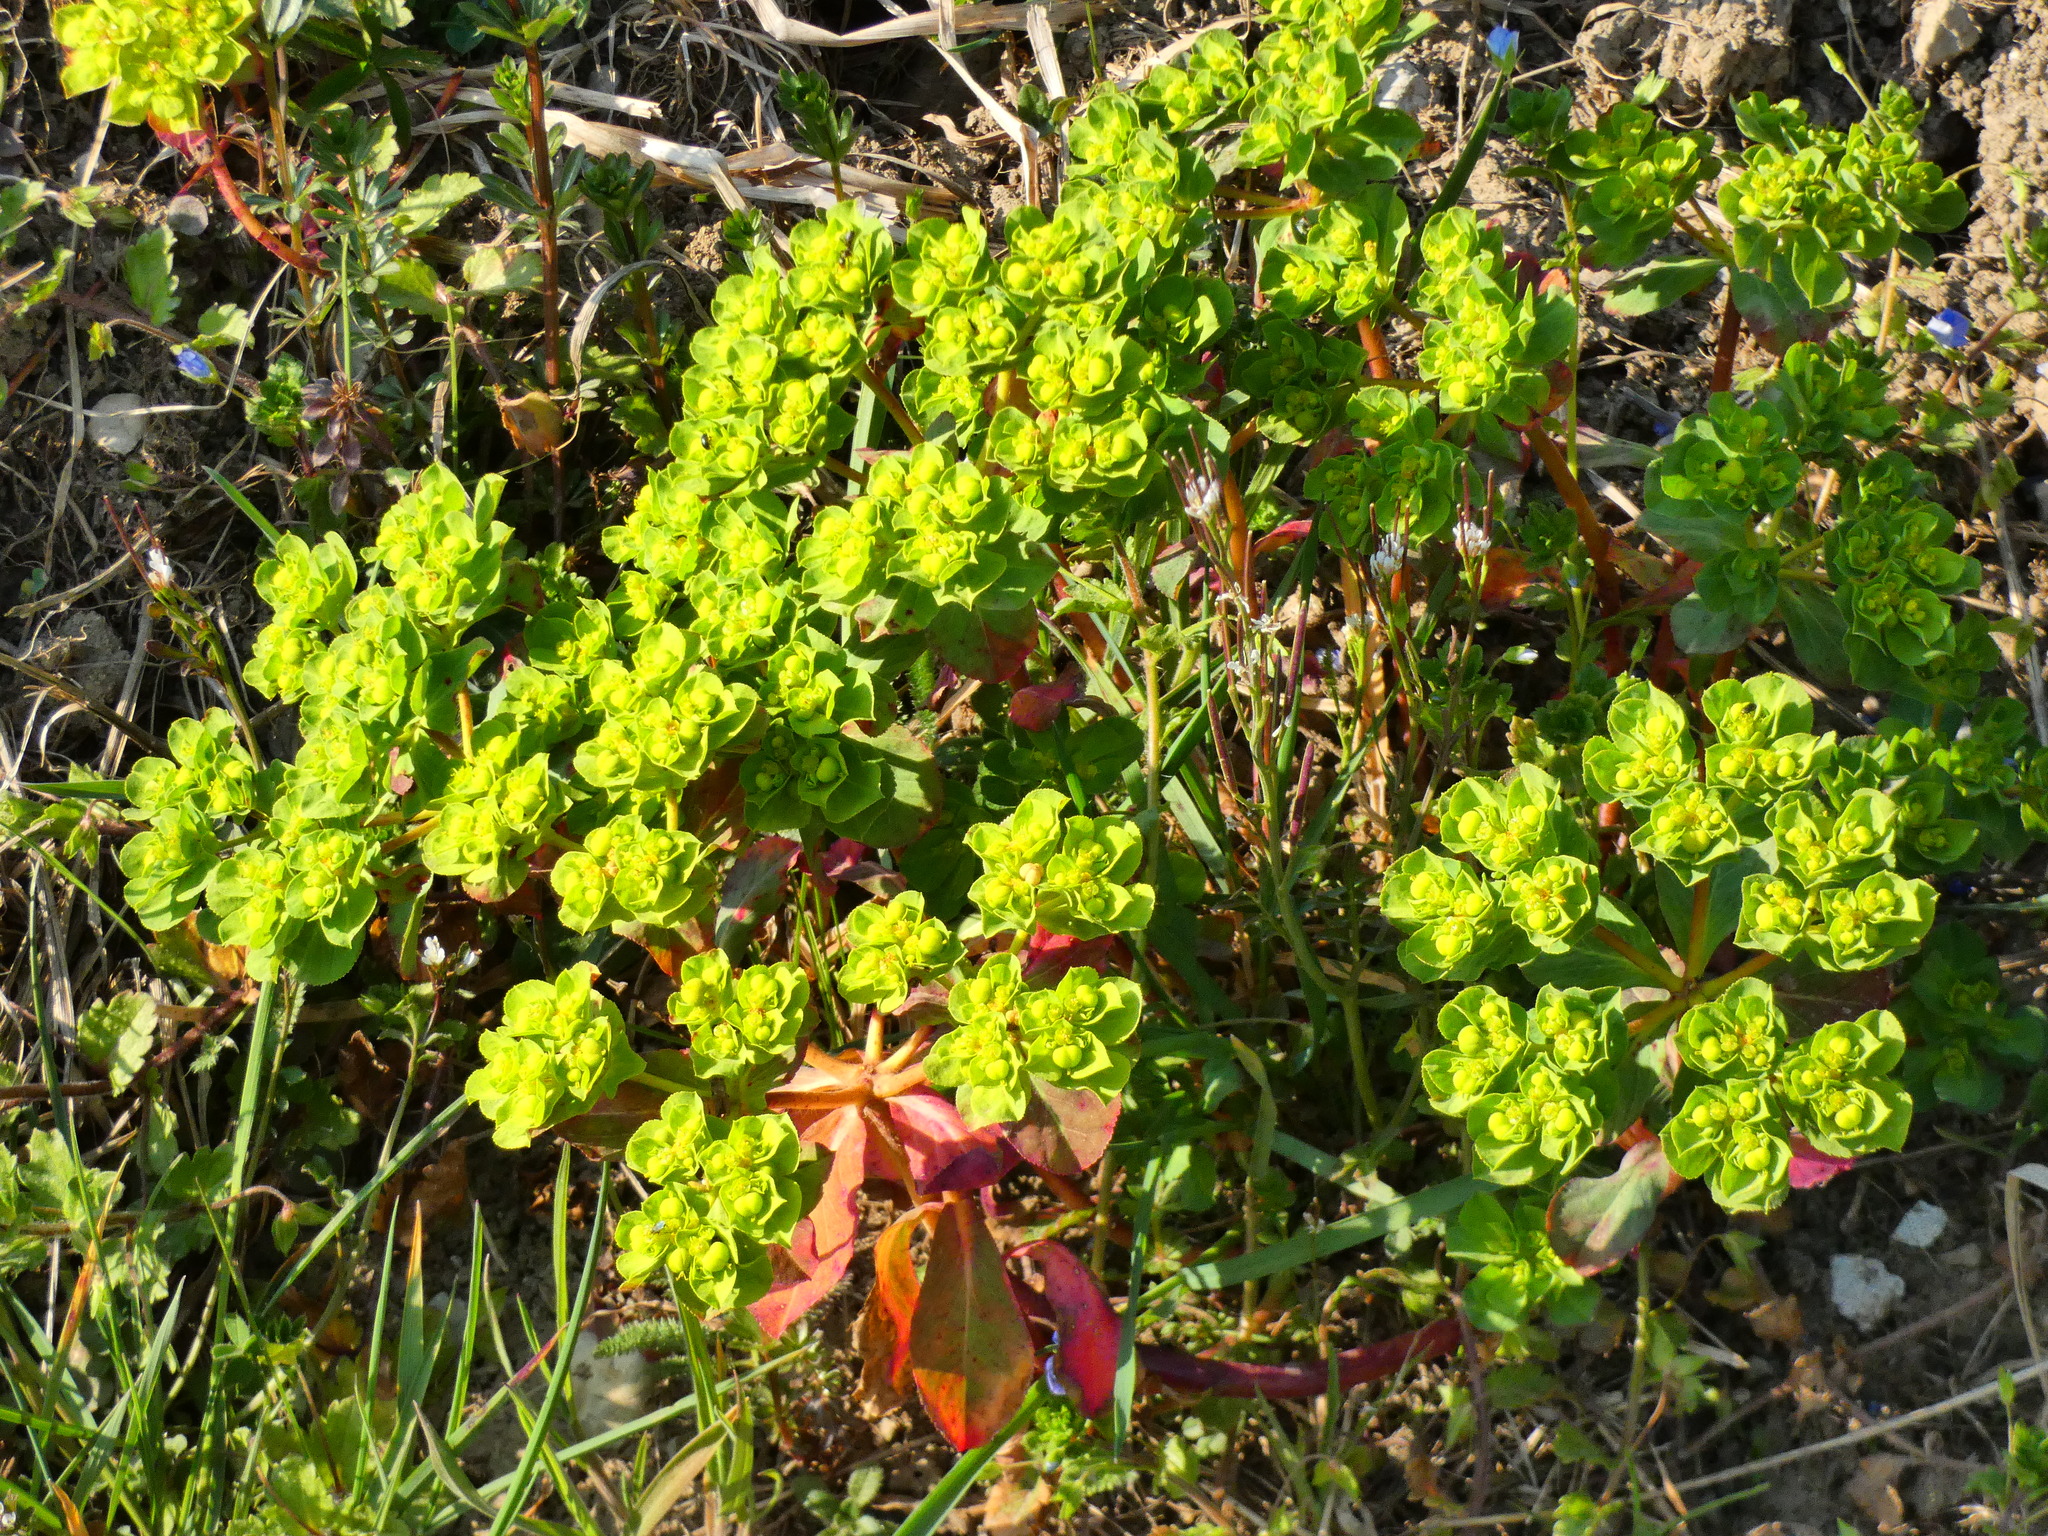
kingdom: Plantae
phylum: Tracheophyta
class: Magnoliopsida
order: Malpighiales
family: Euphorbiaceae
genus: Euphorbia
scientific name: Euphorbia helioscopia
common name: Sun spurge
